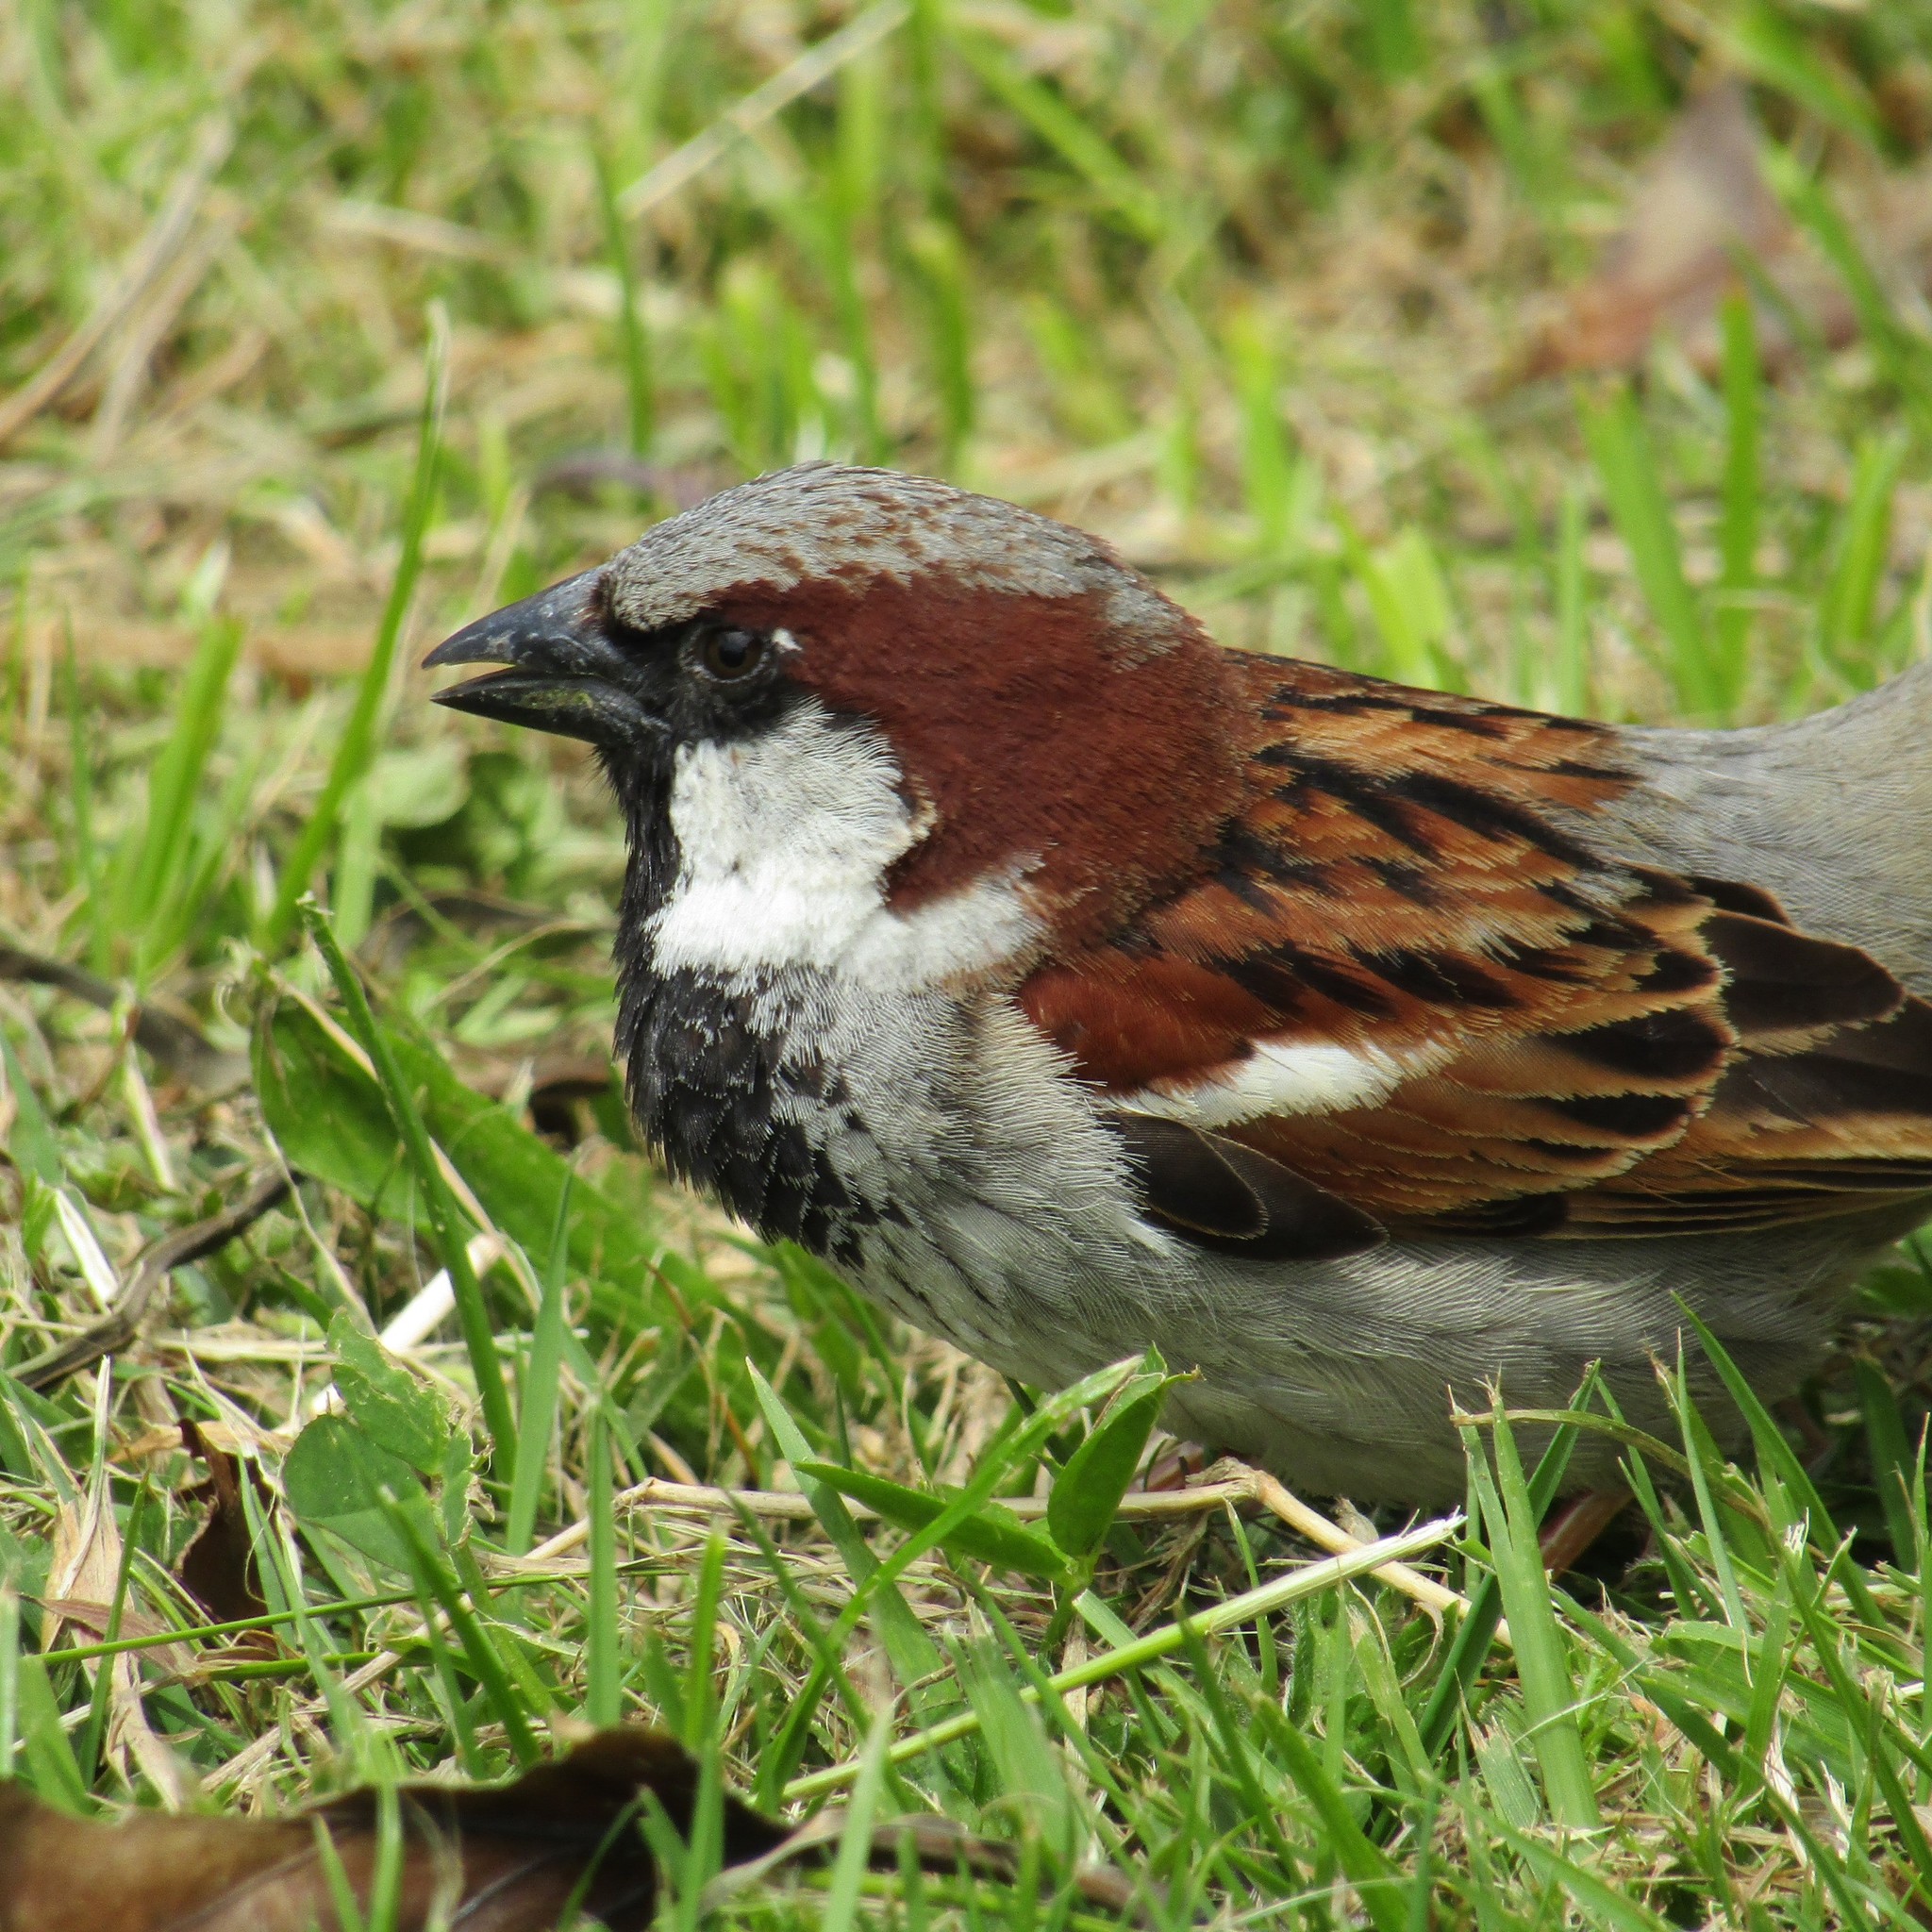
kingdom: Animalia
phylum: Chordata
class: Aves
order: Passeriformes
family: Passeridae
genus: Passer
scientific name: Passer domesticus
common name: House sparrow
